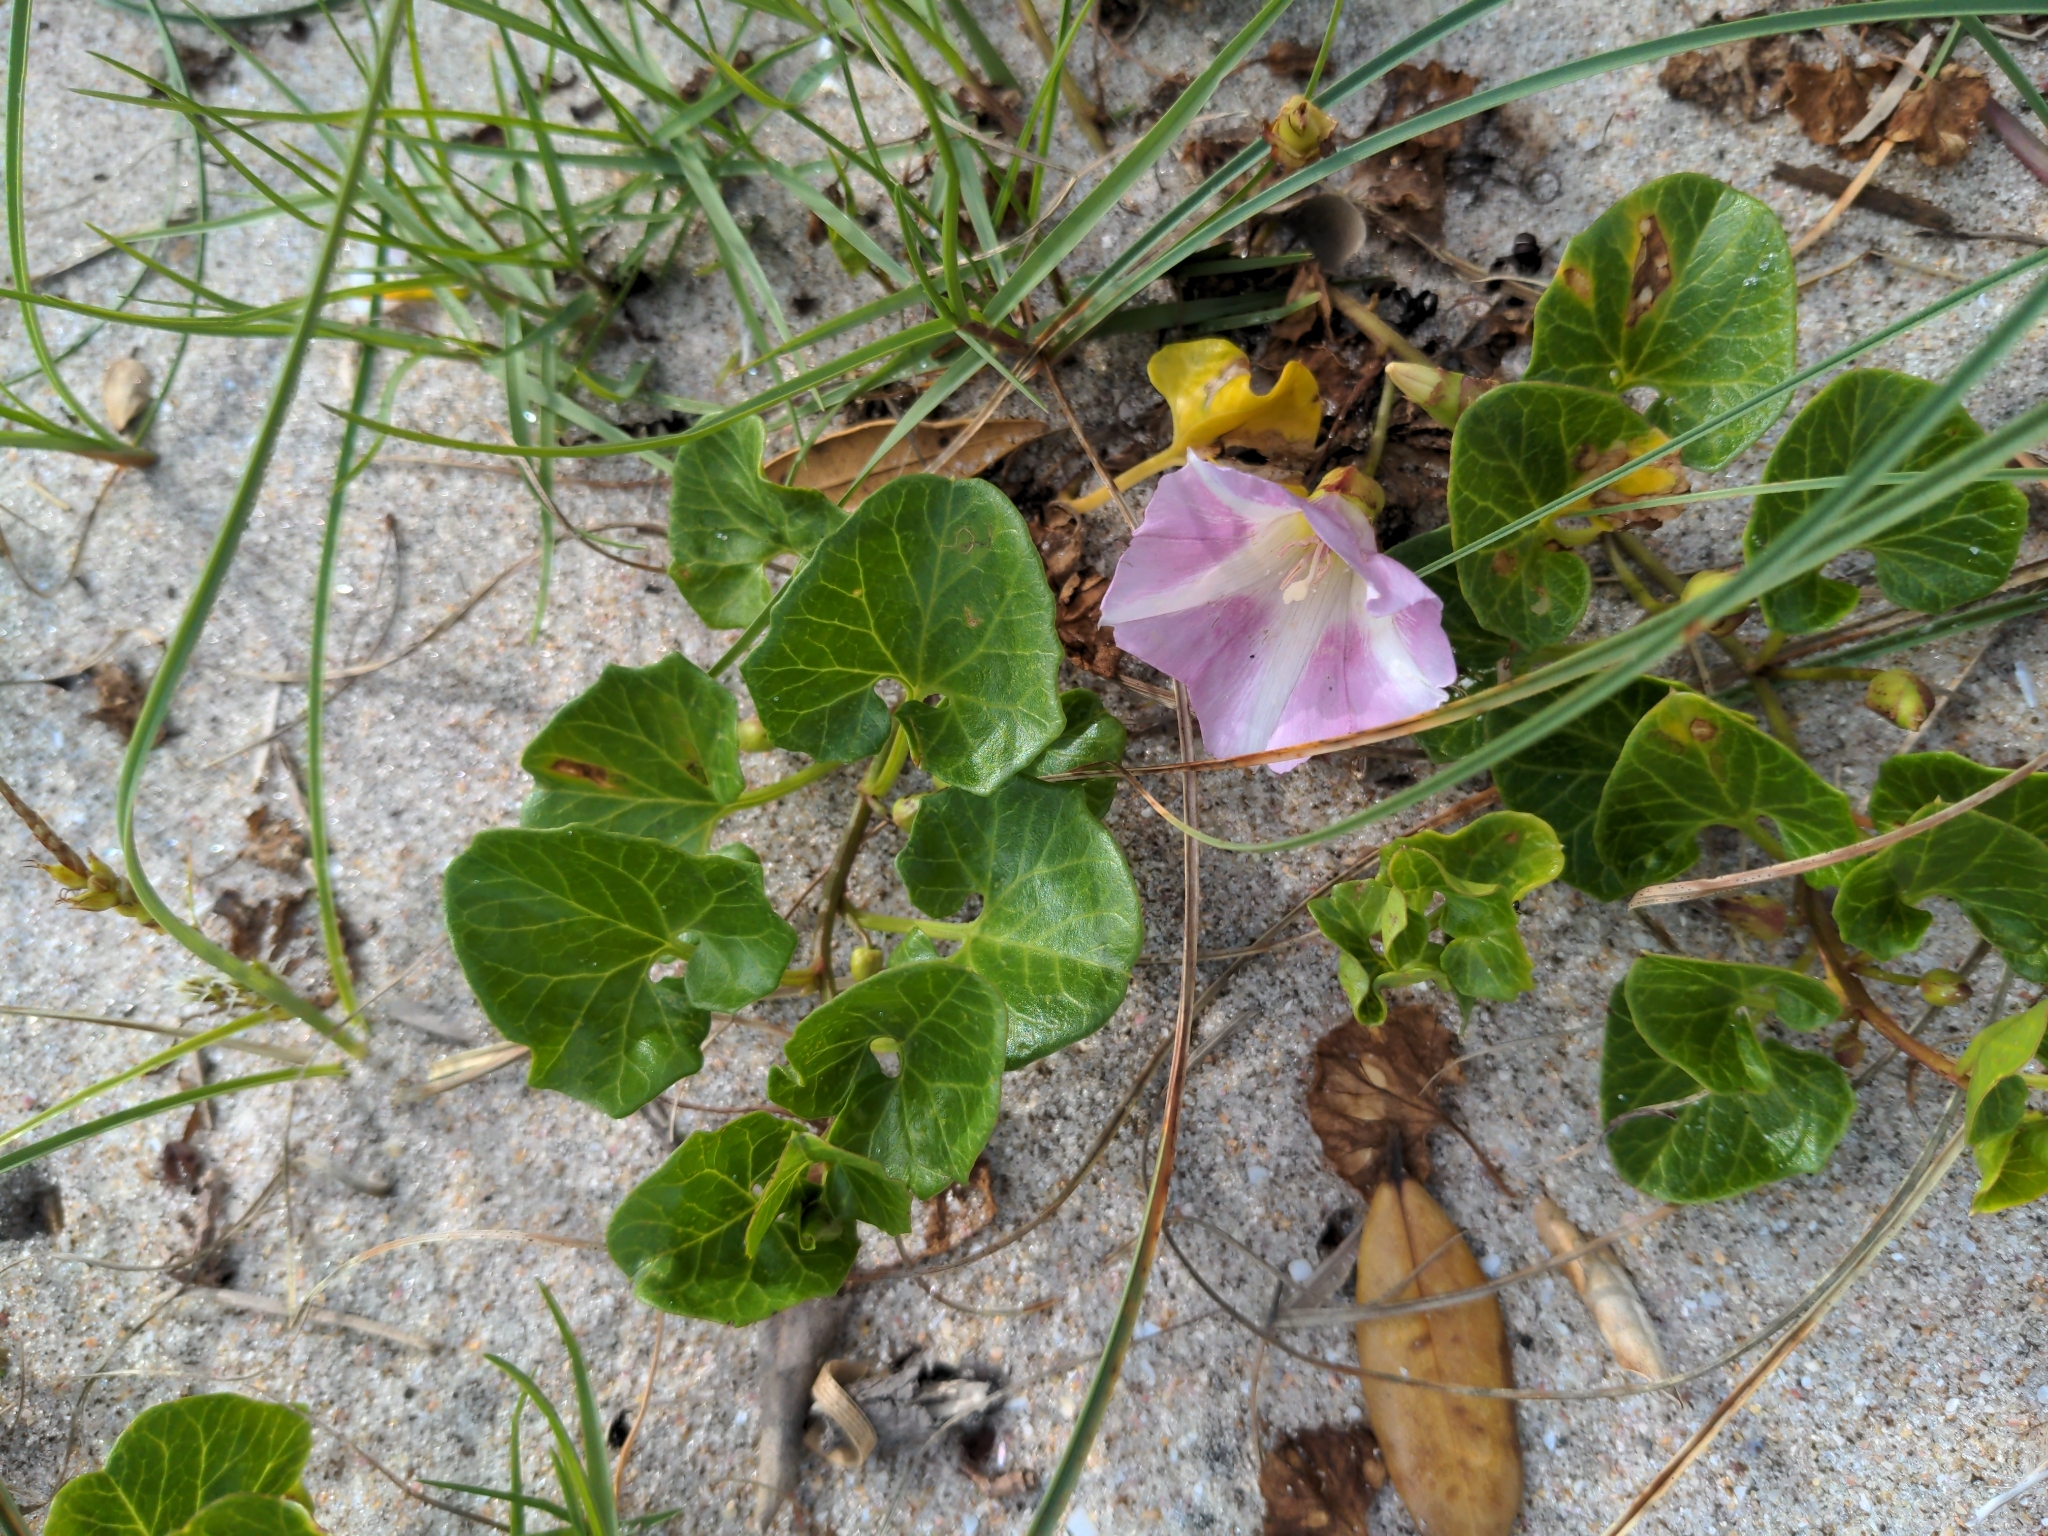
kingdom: Plantae
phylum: Tracheophyta
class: Magnoliopsida
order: Solanales
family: Convolvulaceae
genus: Calystegia
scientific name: Calystegia soldanella
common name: Sea bindweed
